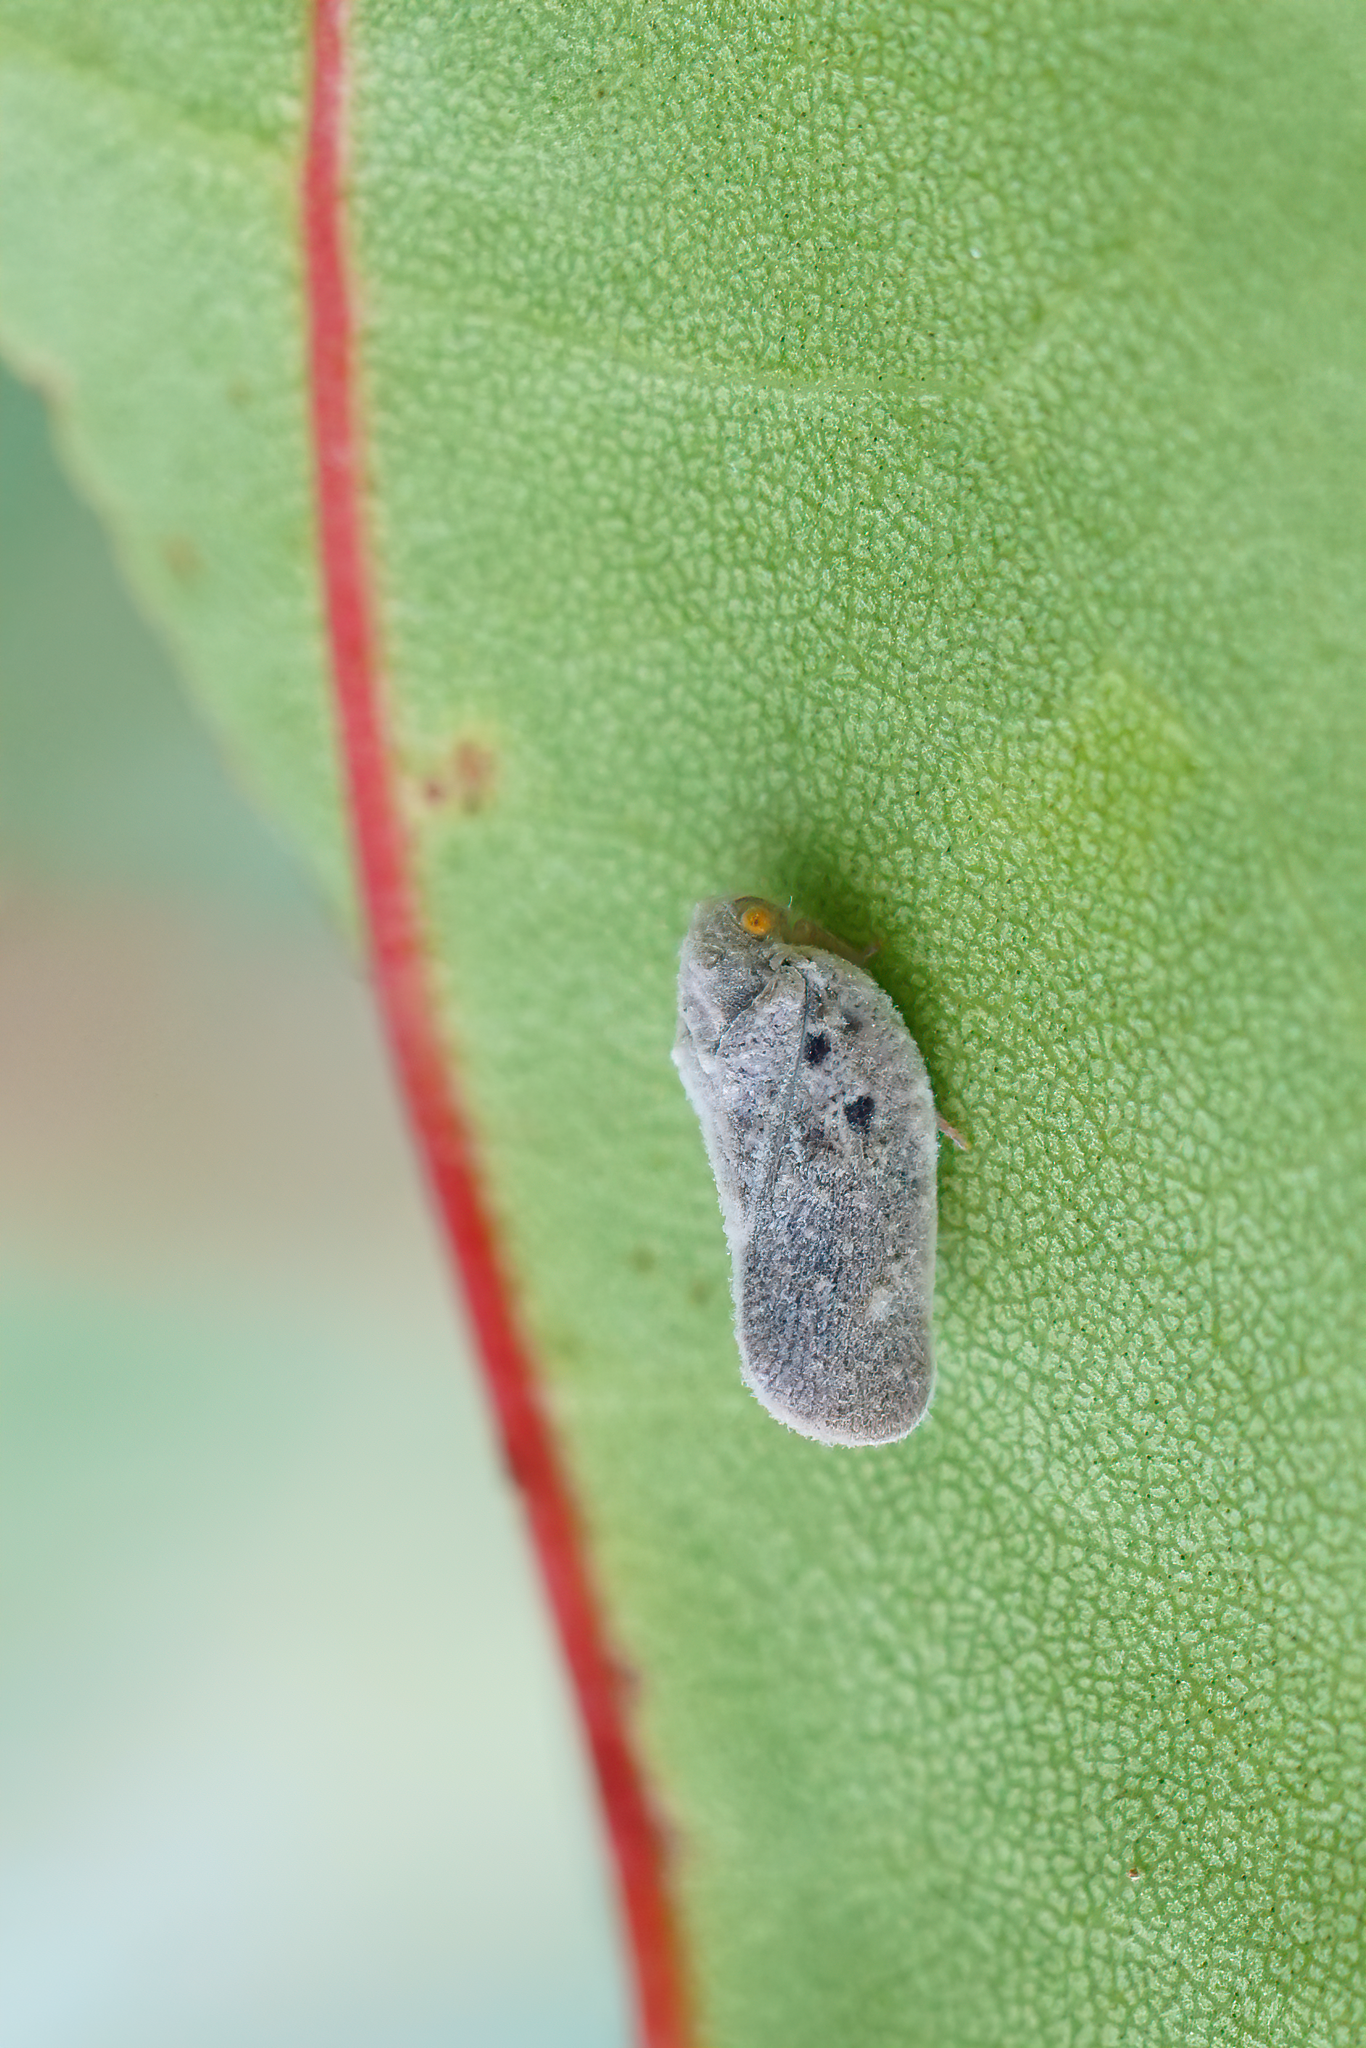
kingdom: Animalia
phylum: Arthropoda
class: Insecta
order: Hemiptera
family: Flatidae
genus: Metcalfa
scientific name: Metcalfa pruinosa
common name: Citrus flatid planthopper
